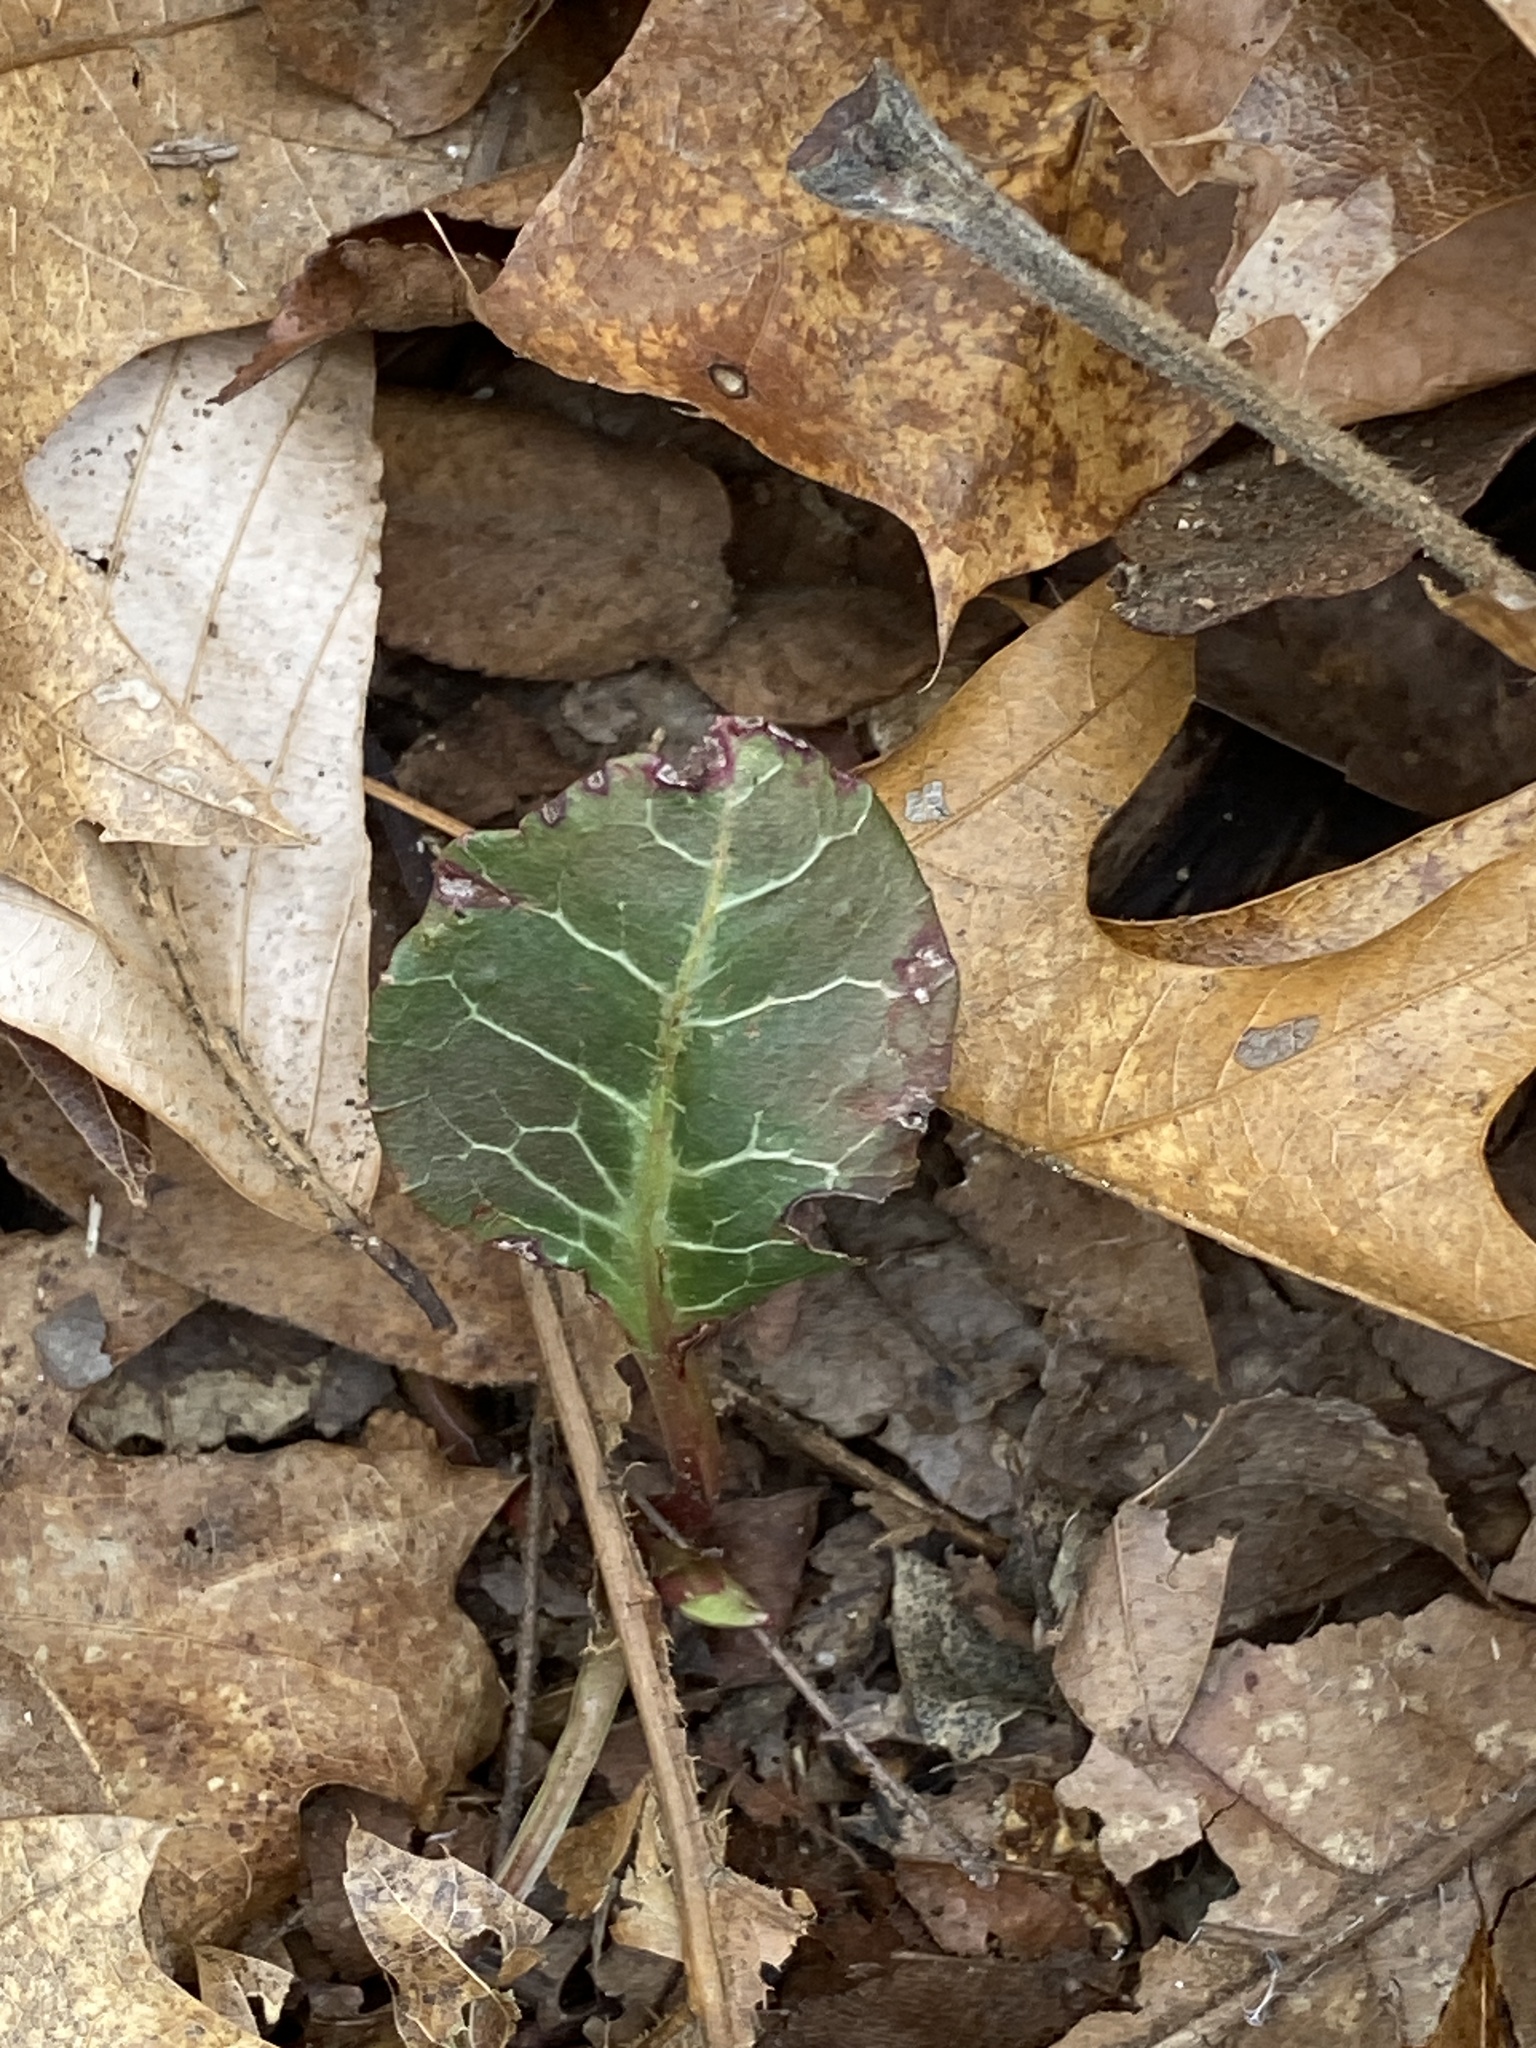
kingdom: Plantae
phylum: Tracheophyta
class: Magnoliopsida
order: Ericales
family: Ericaceae
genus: Pyrola
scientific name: Pyrola americana
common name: American wintergreen
